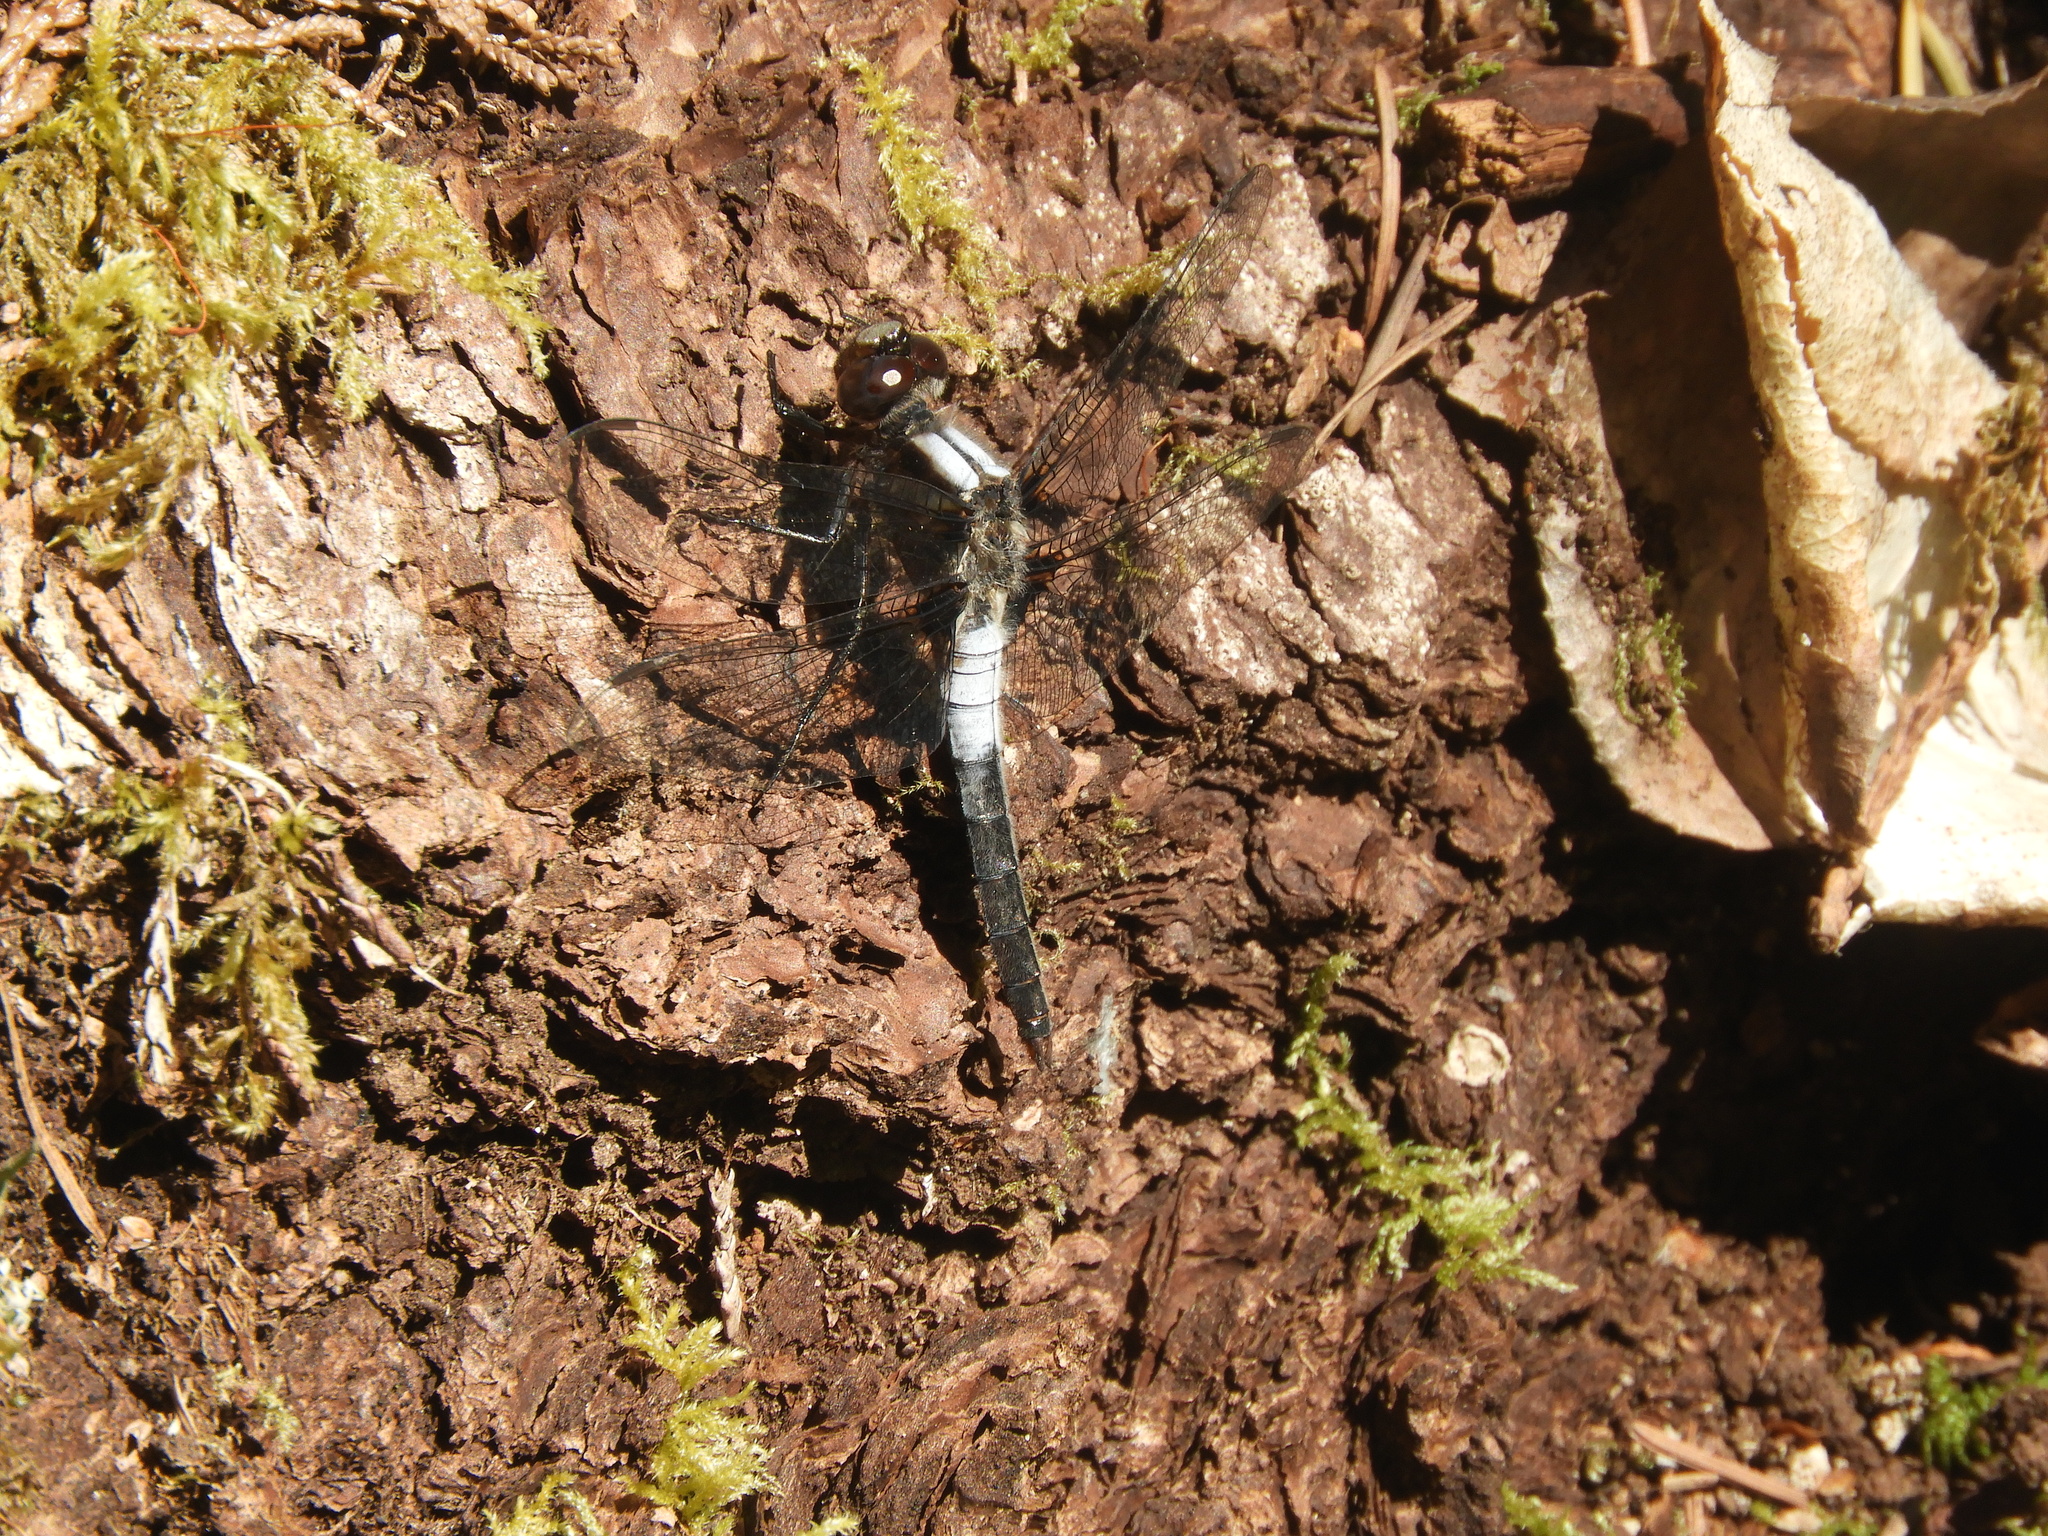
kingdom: Animalia
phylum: Arthropoda
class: Insecta
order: Odonata
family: Libellulidae
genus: Ladona
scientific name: Ladona julia
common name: Chalk-fronted corporal
